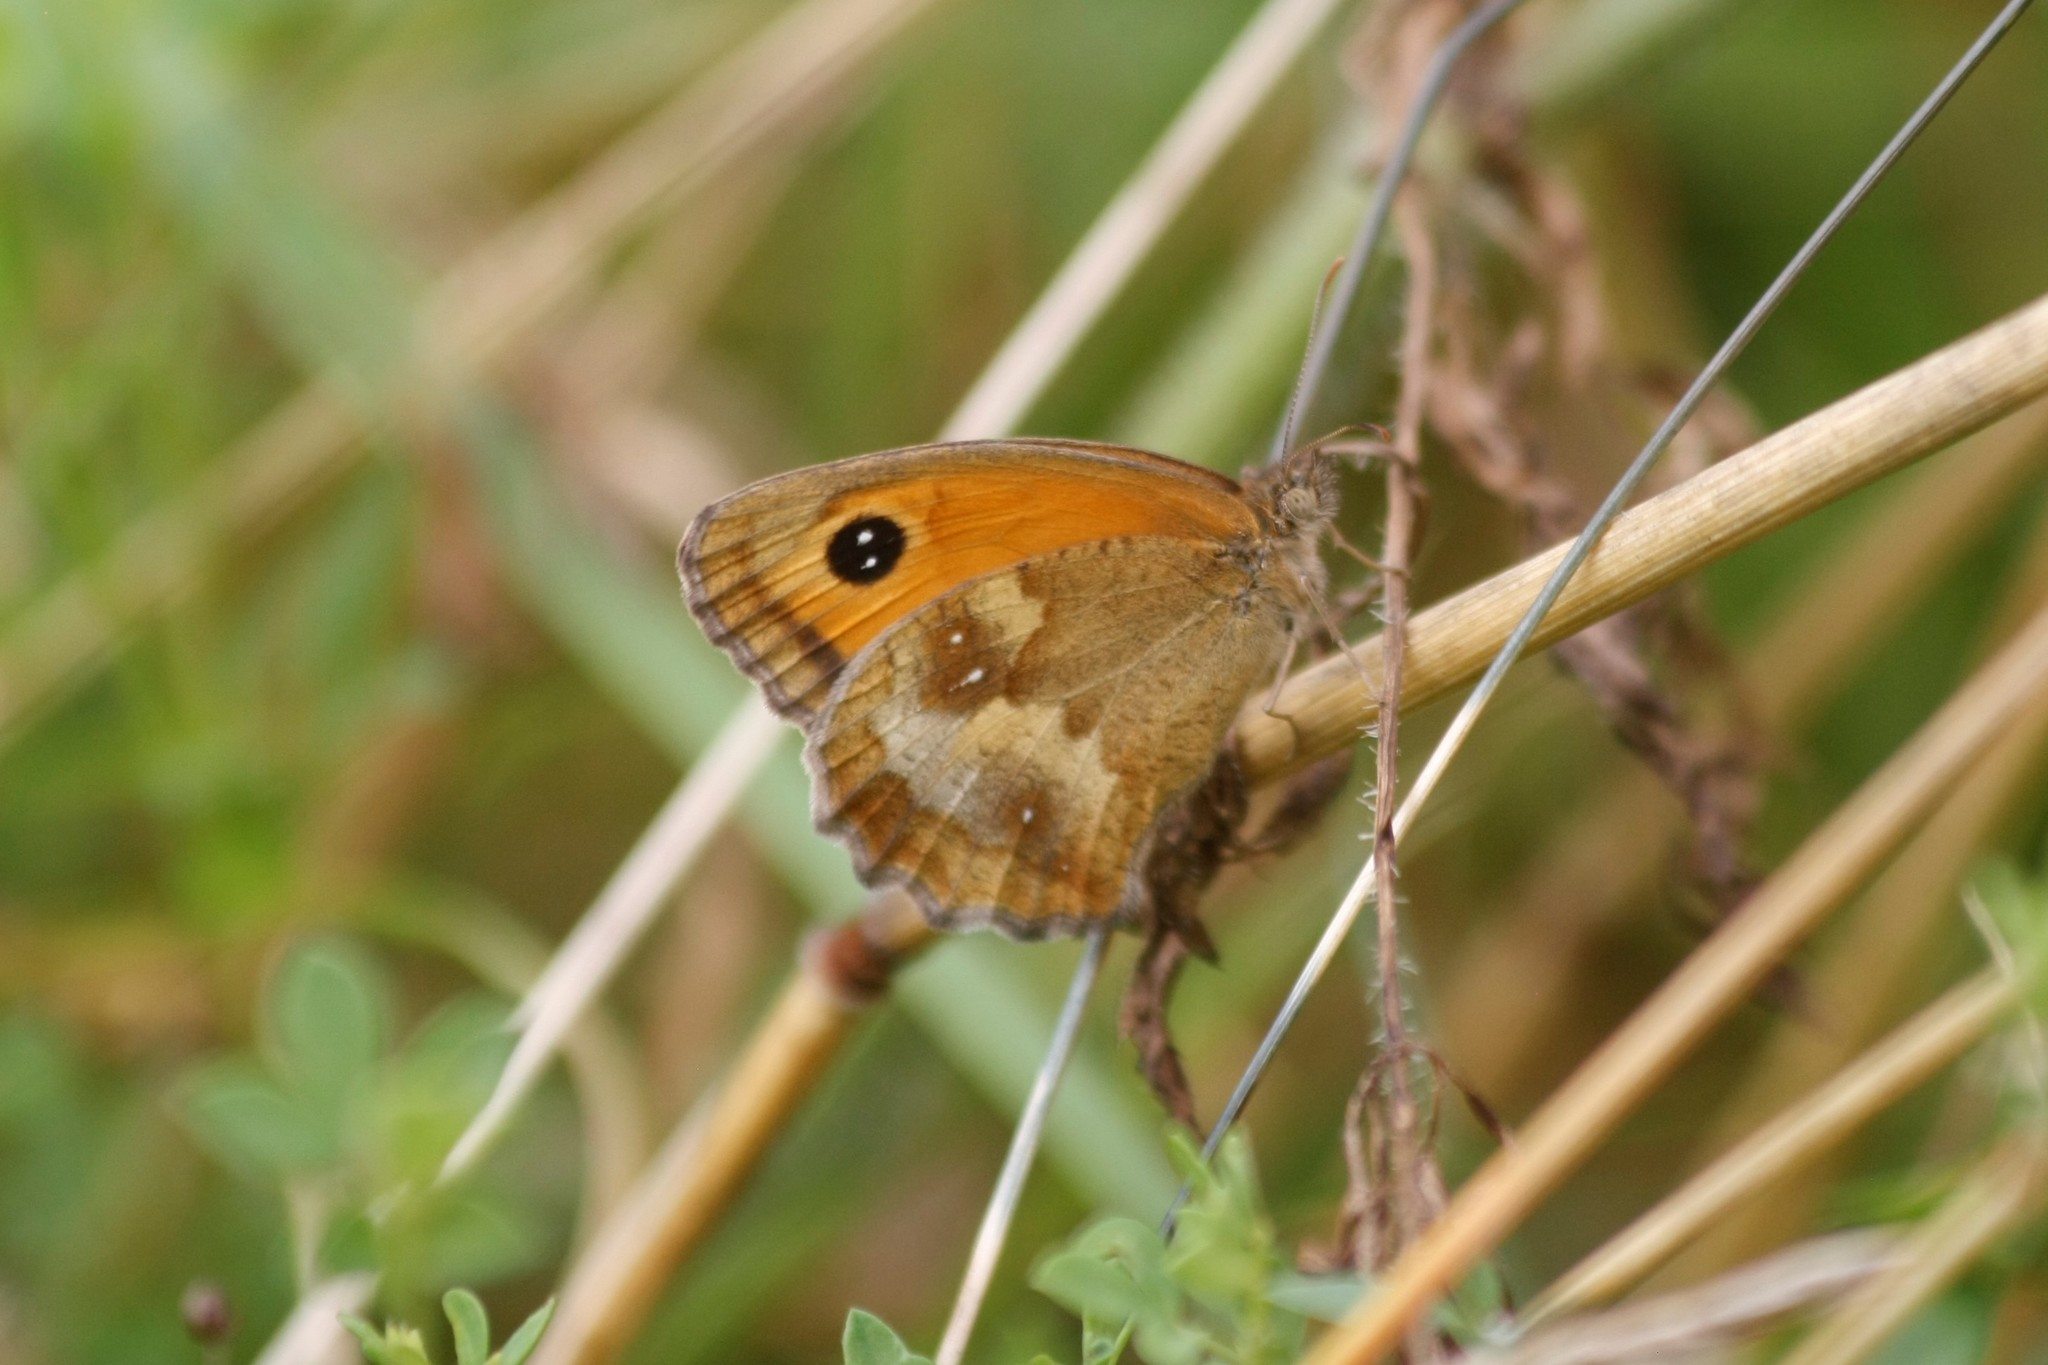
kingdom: Animalia
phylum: Arthropoda
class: Insecta
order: Lepidoptera
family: Nymphalidae
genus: Pyronia
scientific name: Pyronia tithonus
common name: Gatekeeper
